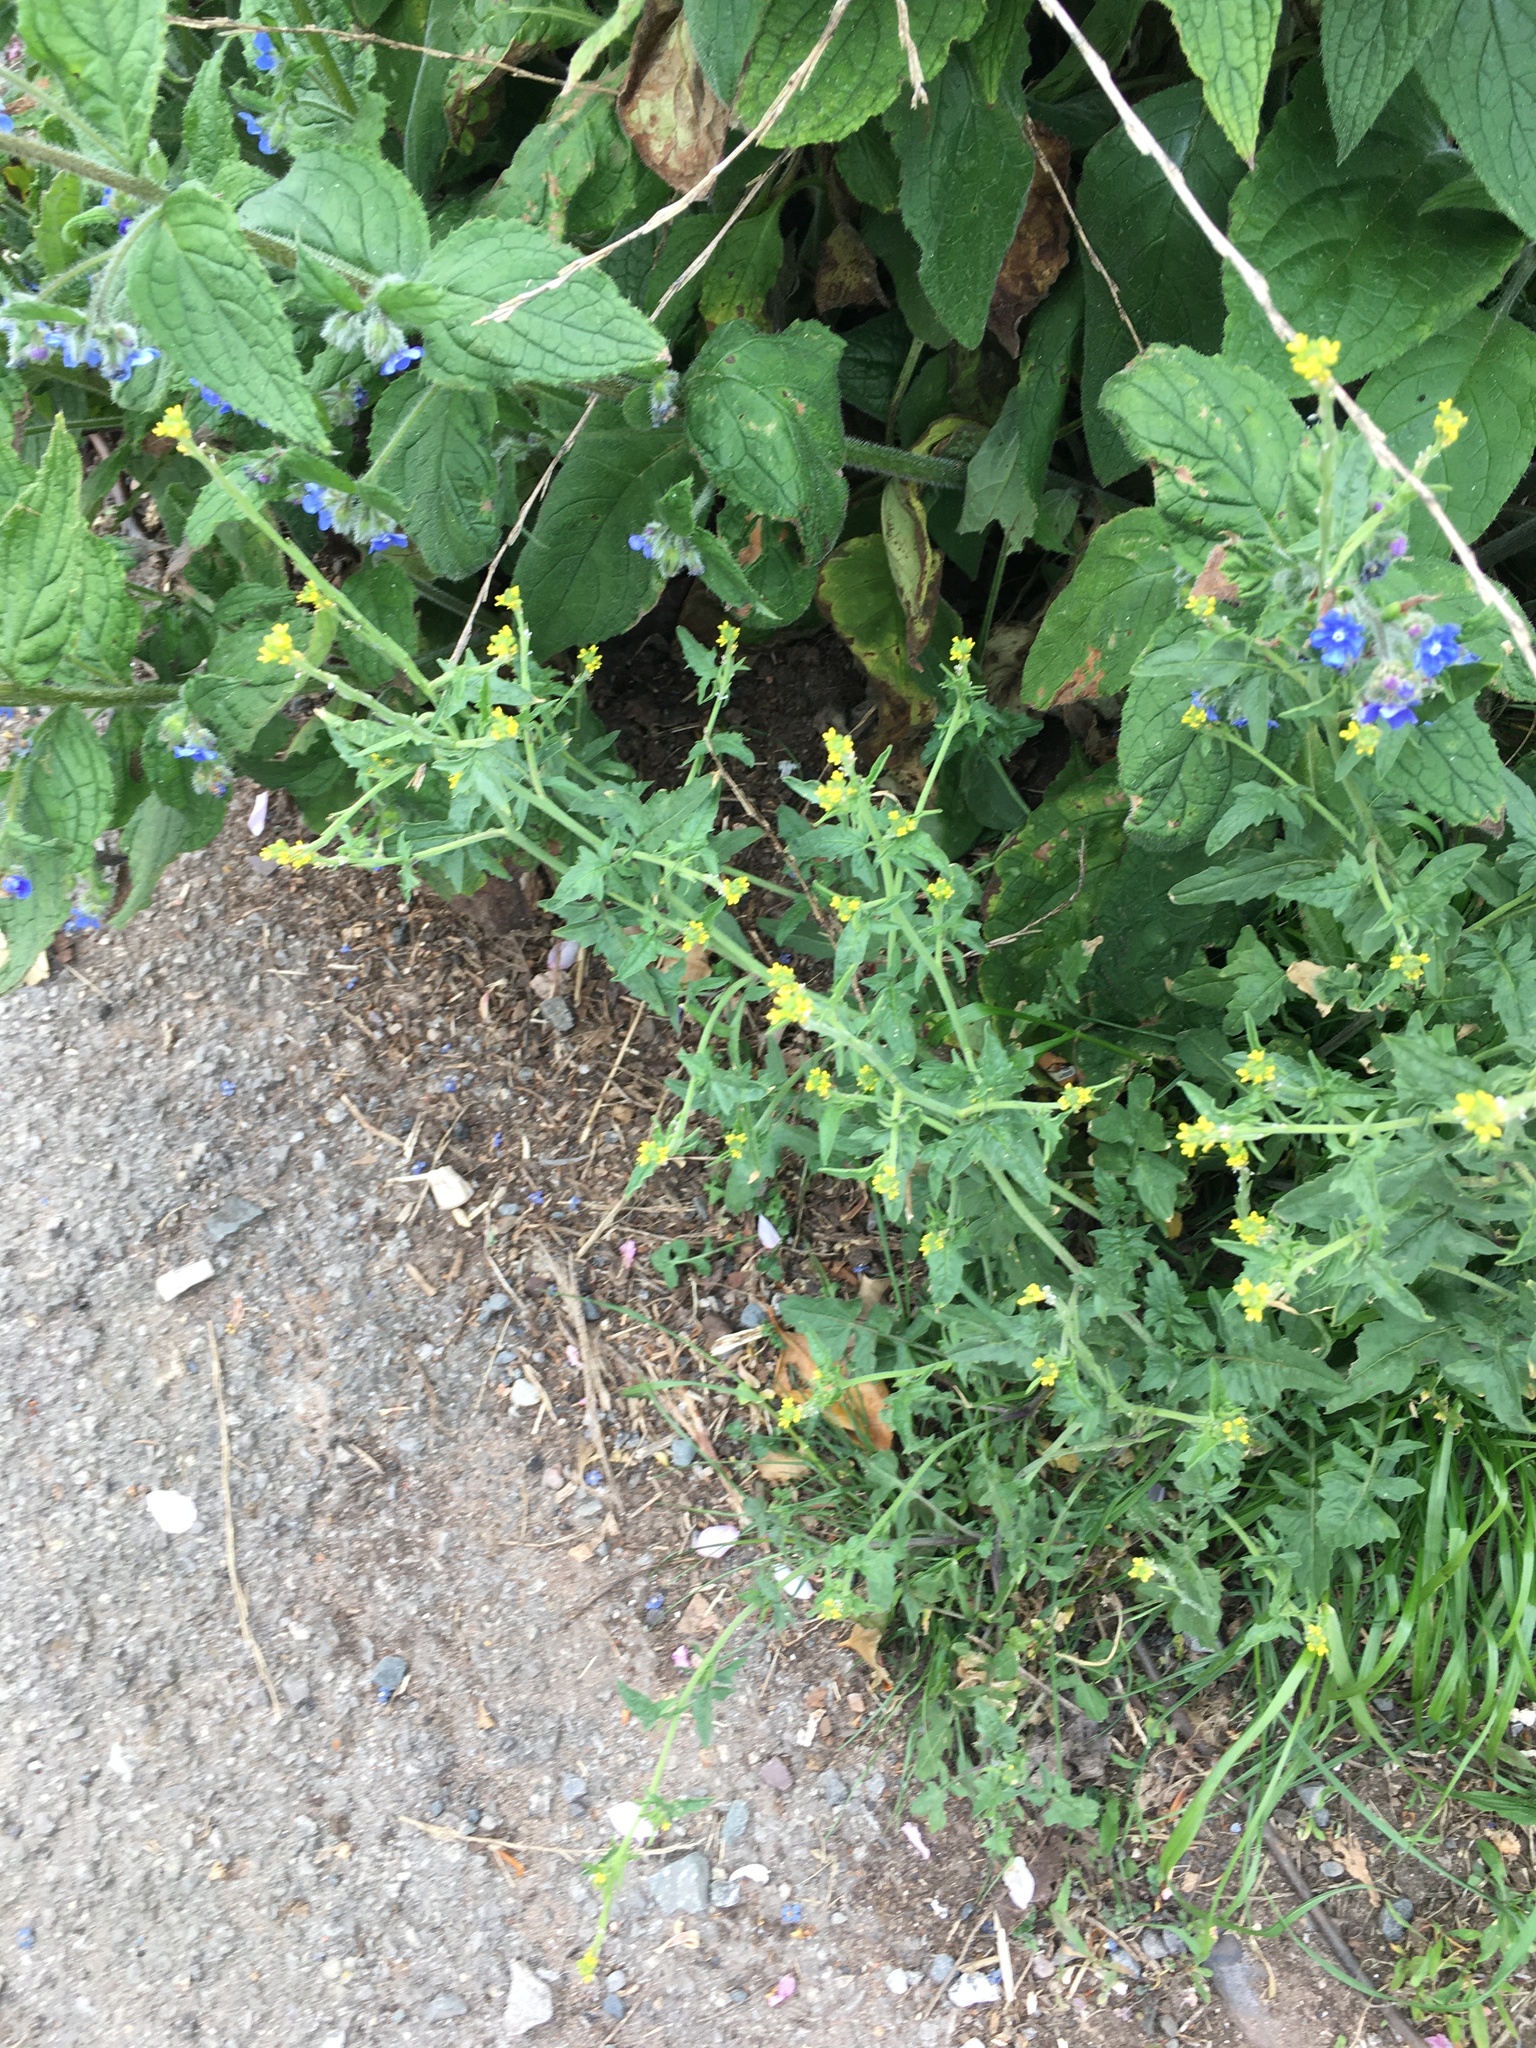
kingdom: Plantae
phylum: Tracheophyta
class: Magnoliopsida
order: Brassicales
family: Brassicaceae
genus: Sisymbrium
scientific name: Sisymbrium officinale
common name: Hedge mustard
